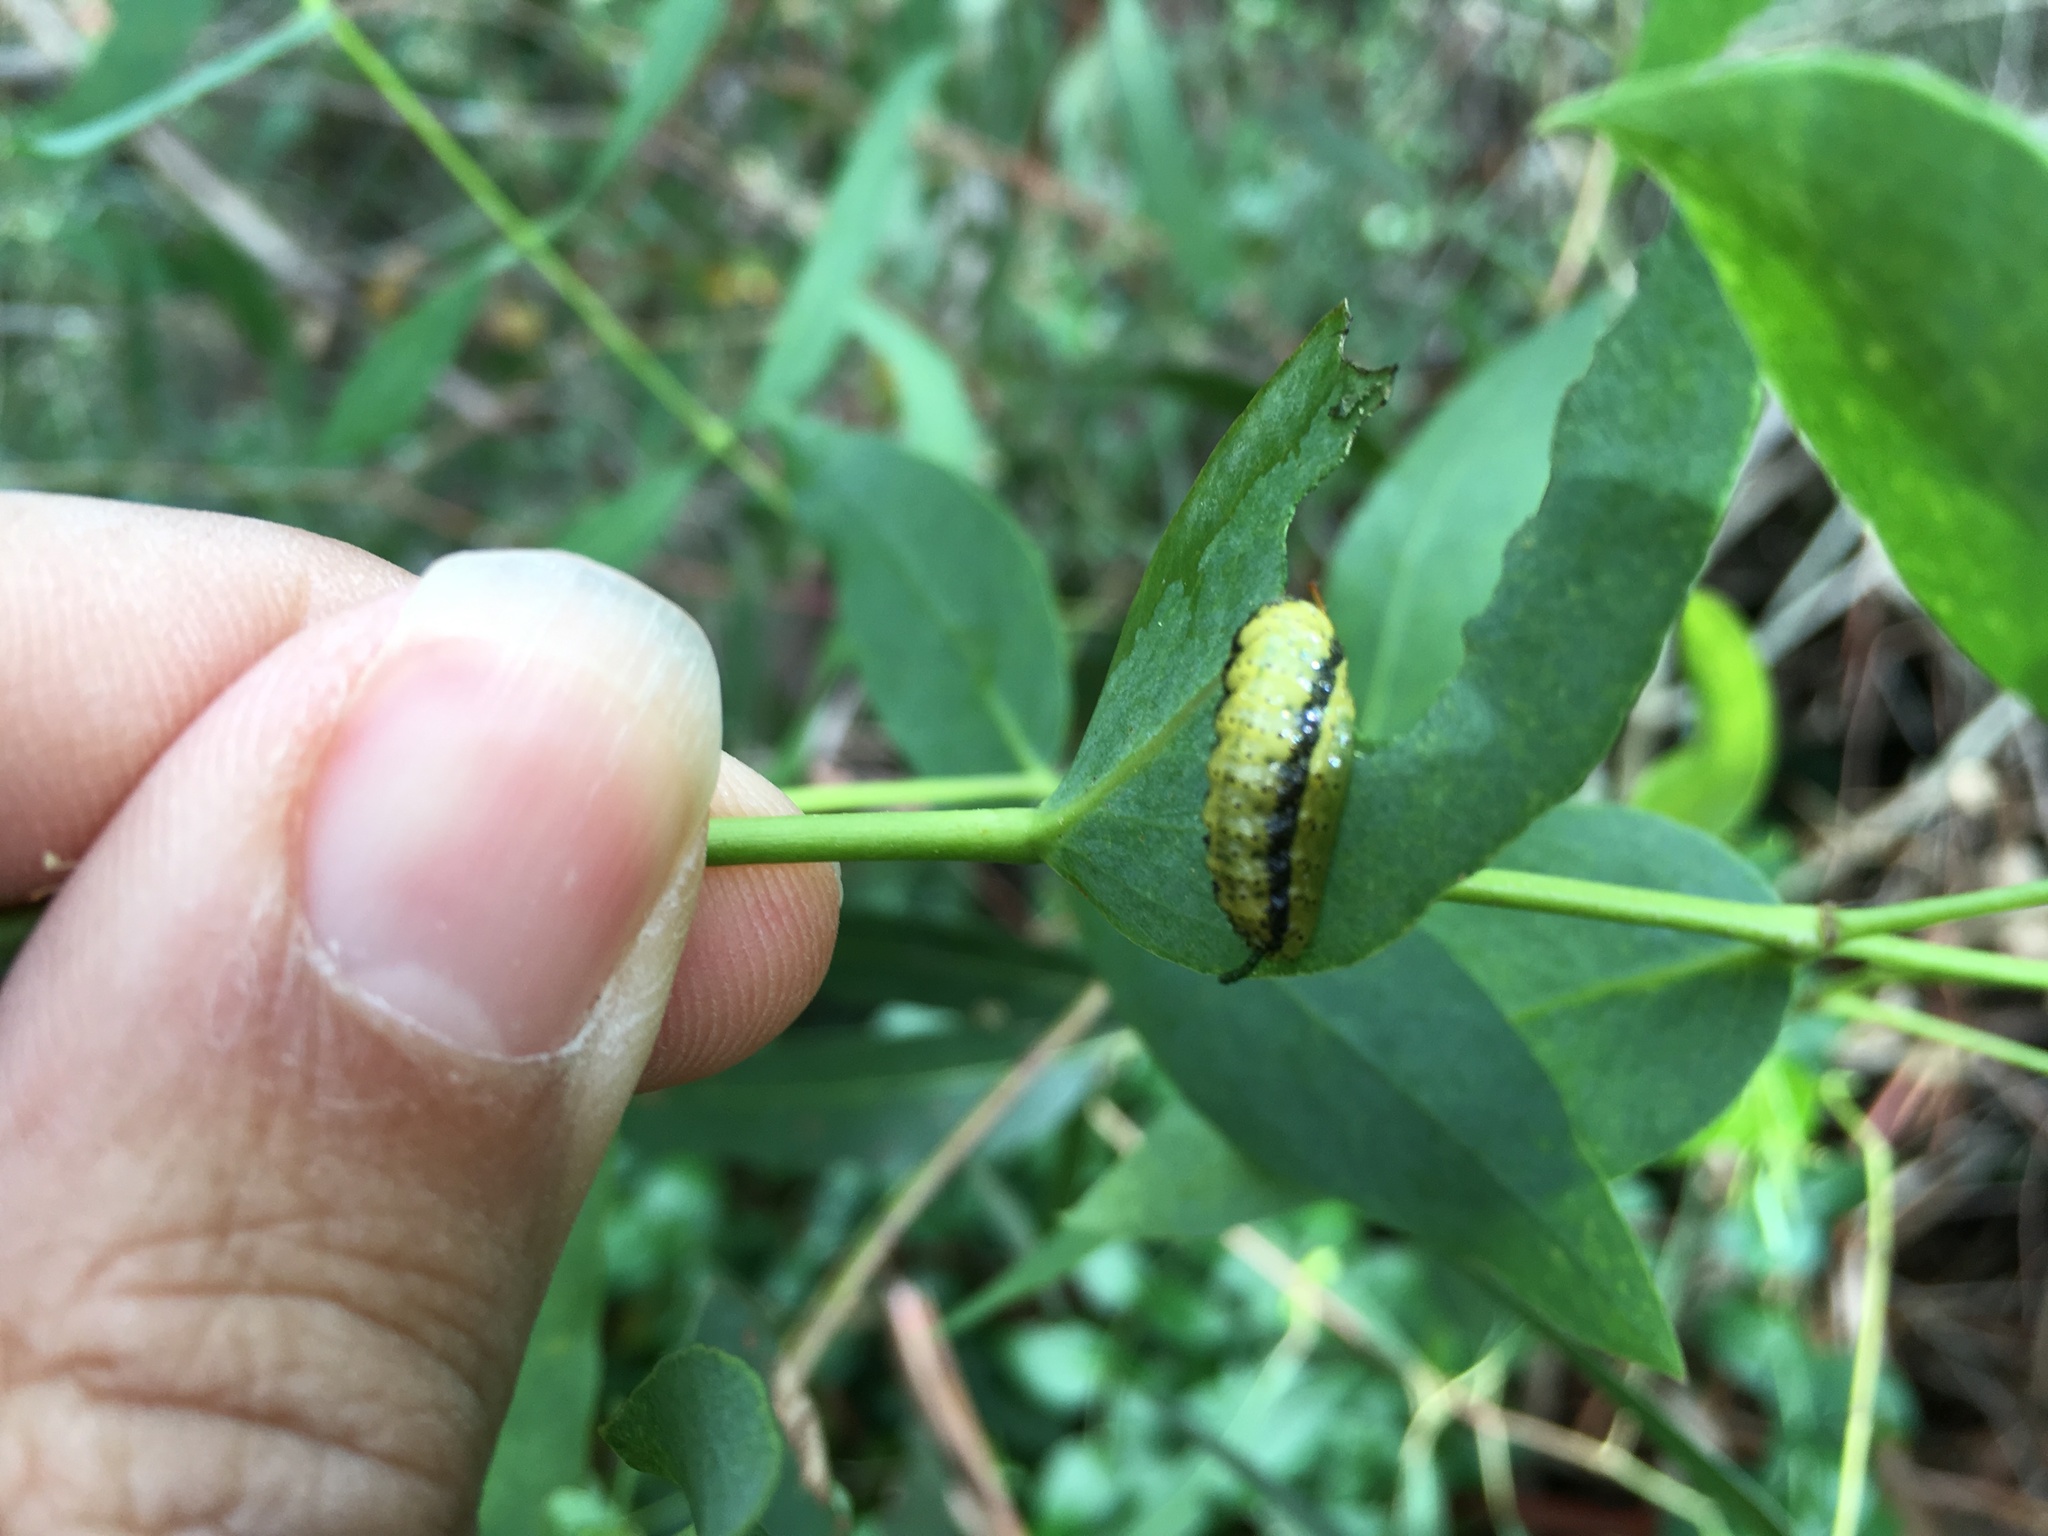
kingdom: Animalia
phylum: Arthropoda
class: Insecta
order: Coleoptera
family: Curculionidae
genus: Gonipterus
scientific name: Gonipterus platensis
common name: Eucalyptus snout beetle
